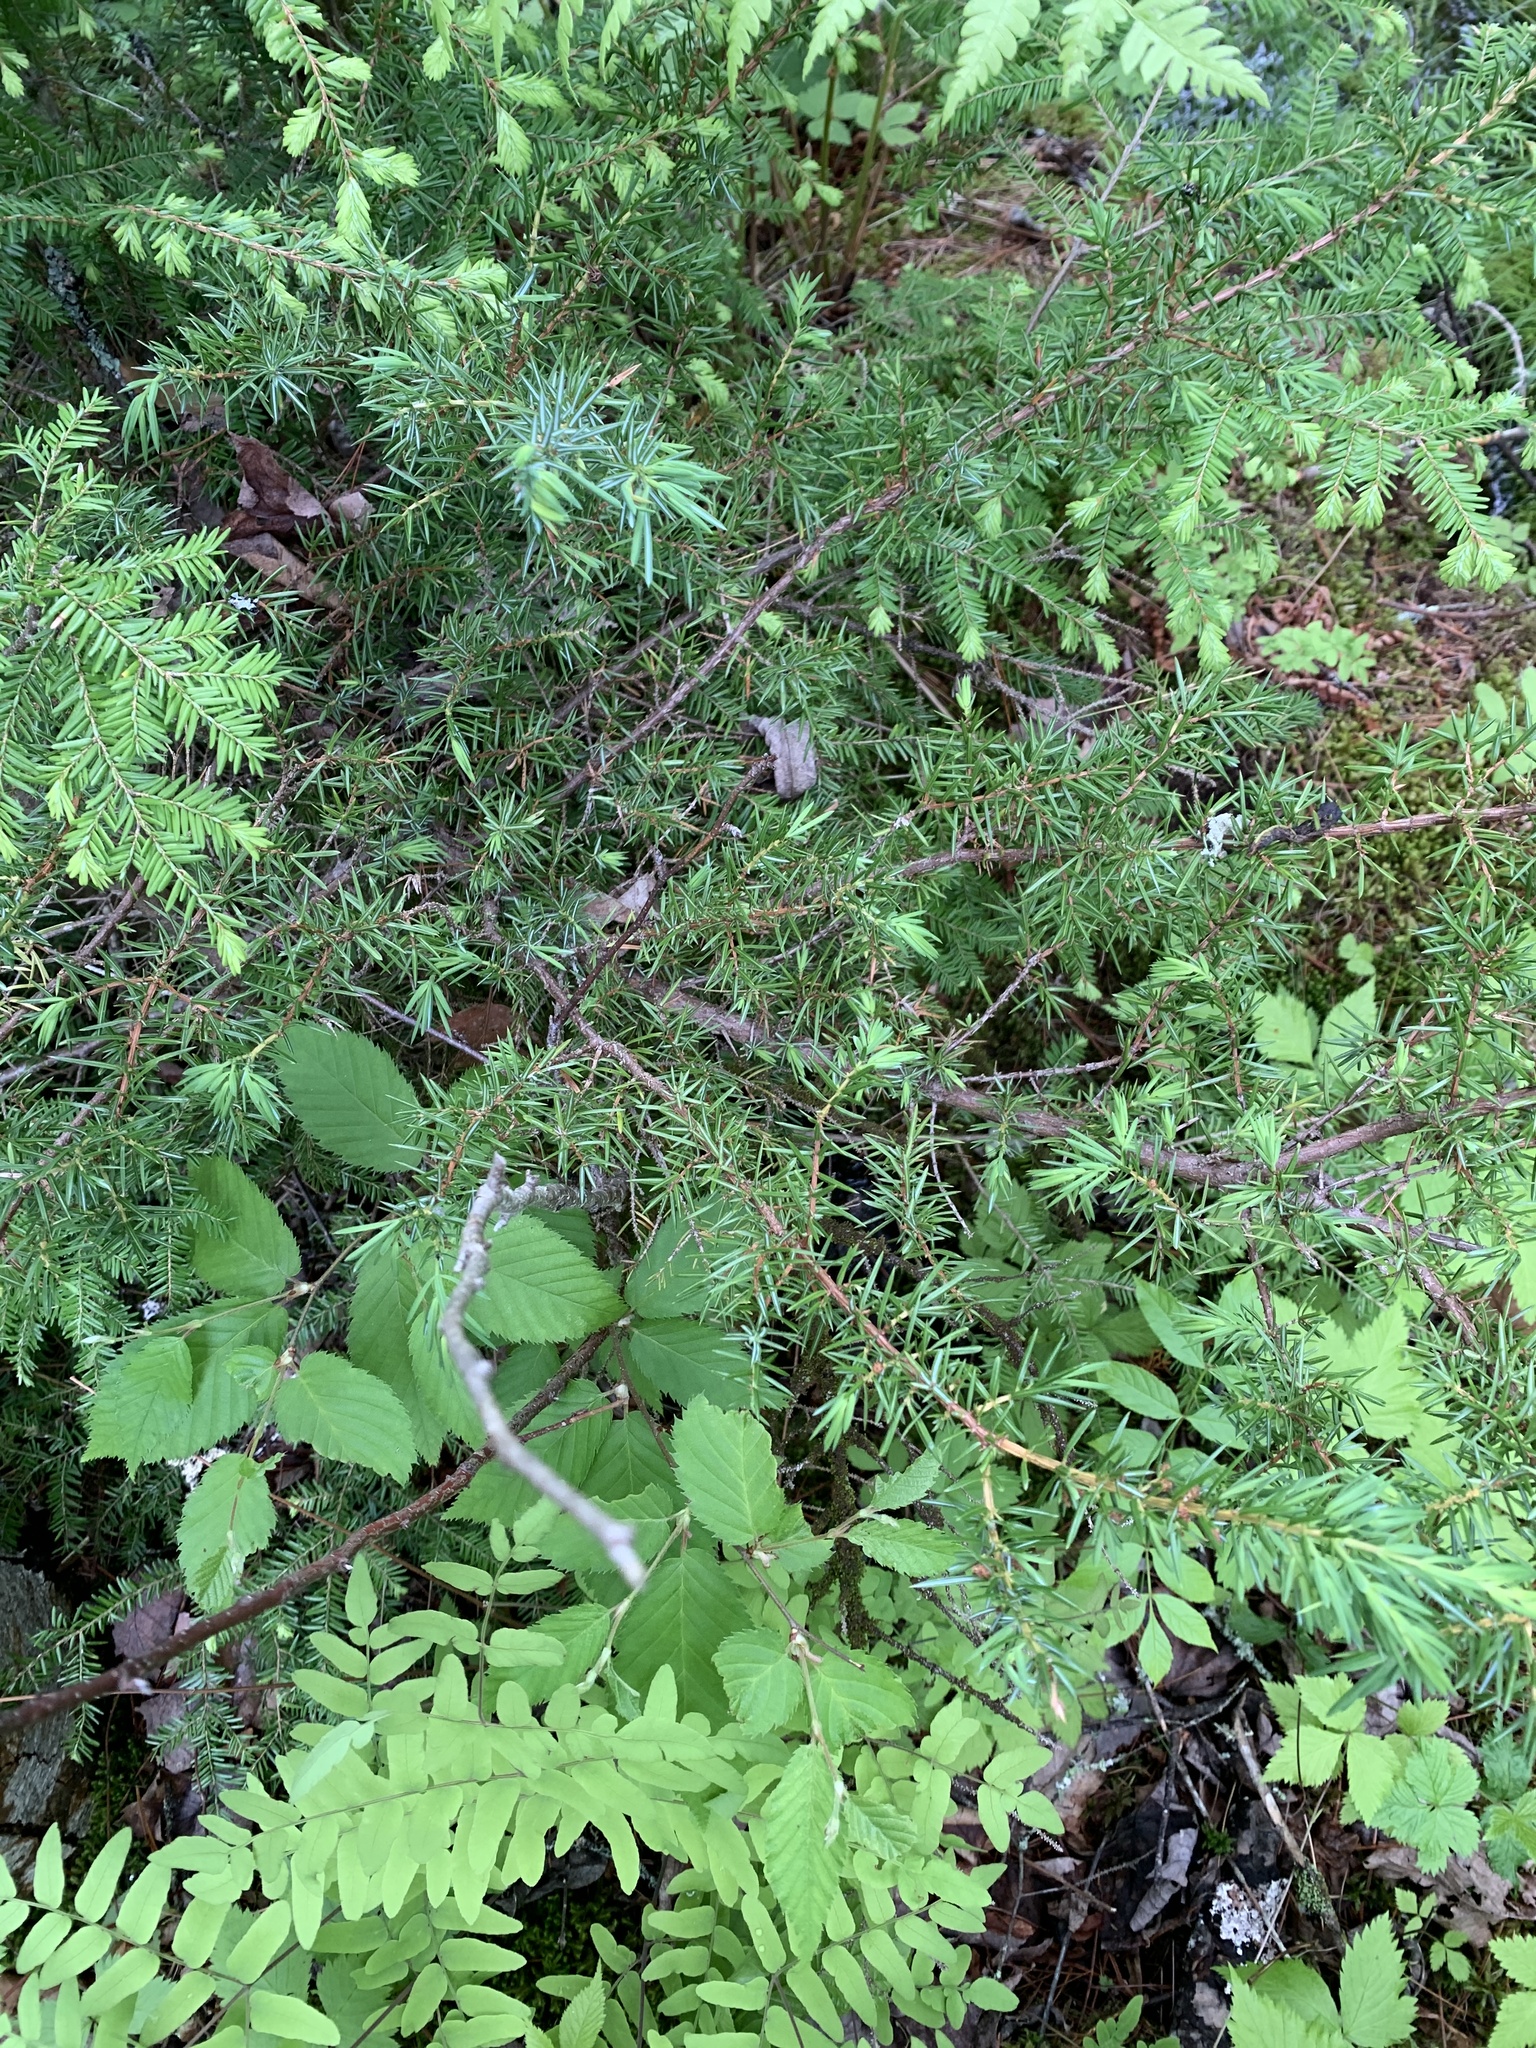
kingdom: Plantae
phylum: Tracheophyta
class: Pinopsida
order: Pinales
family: Cupressaceae
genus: Juniperus
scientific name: Juniperus communis
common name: Common juniper
